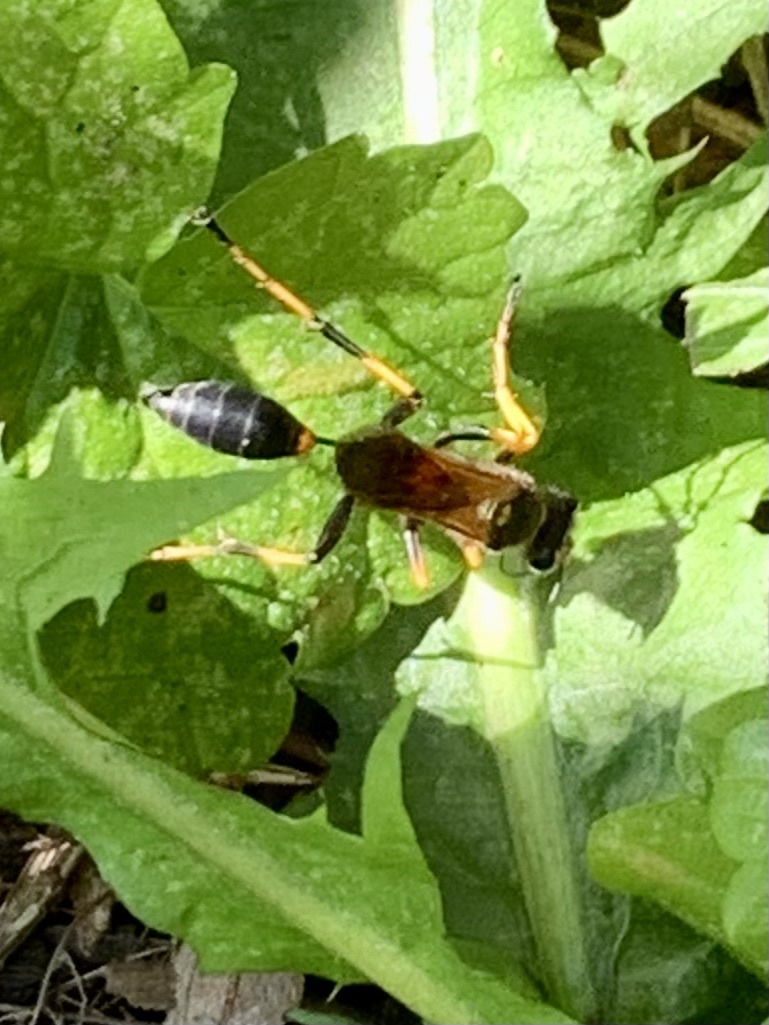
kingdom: Animalia
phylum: Arthropoda
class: Insecta
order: Hymenoptera
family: Sphecidae
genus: Sceliphron
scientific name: Sceliphron caementarium
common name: Mud dauber
